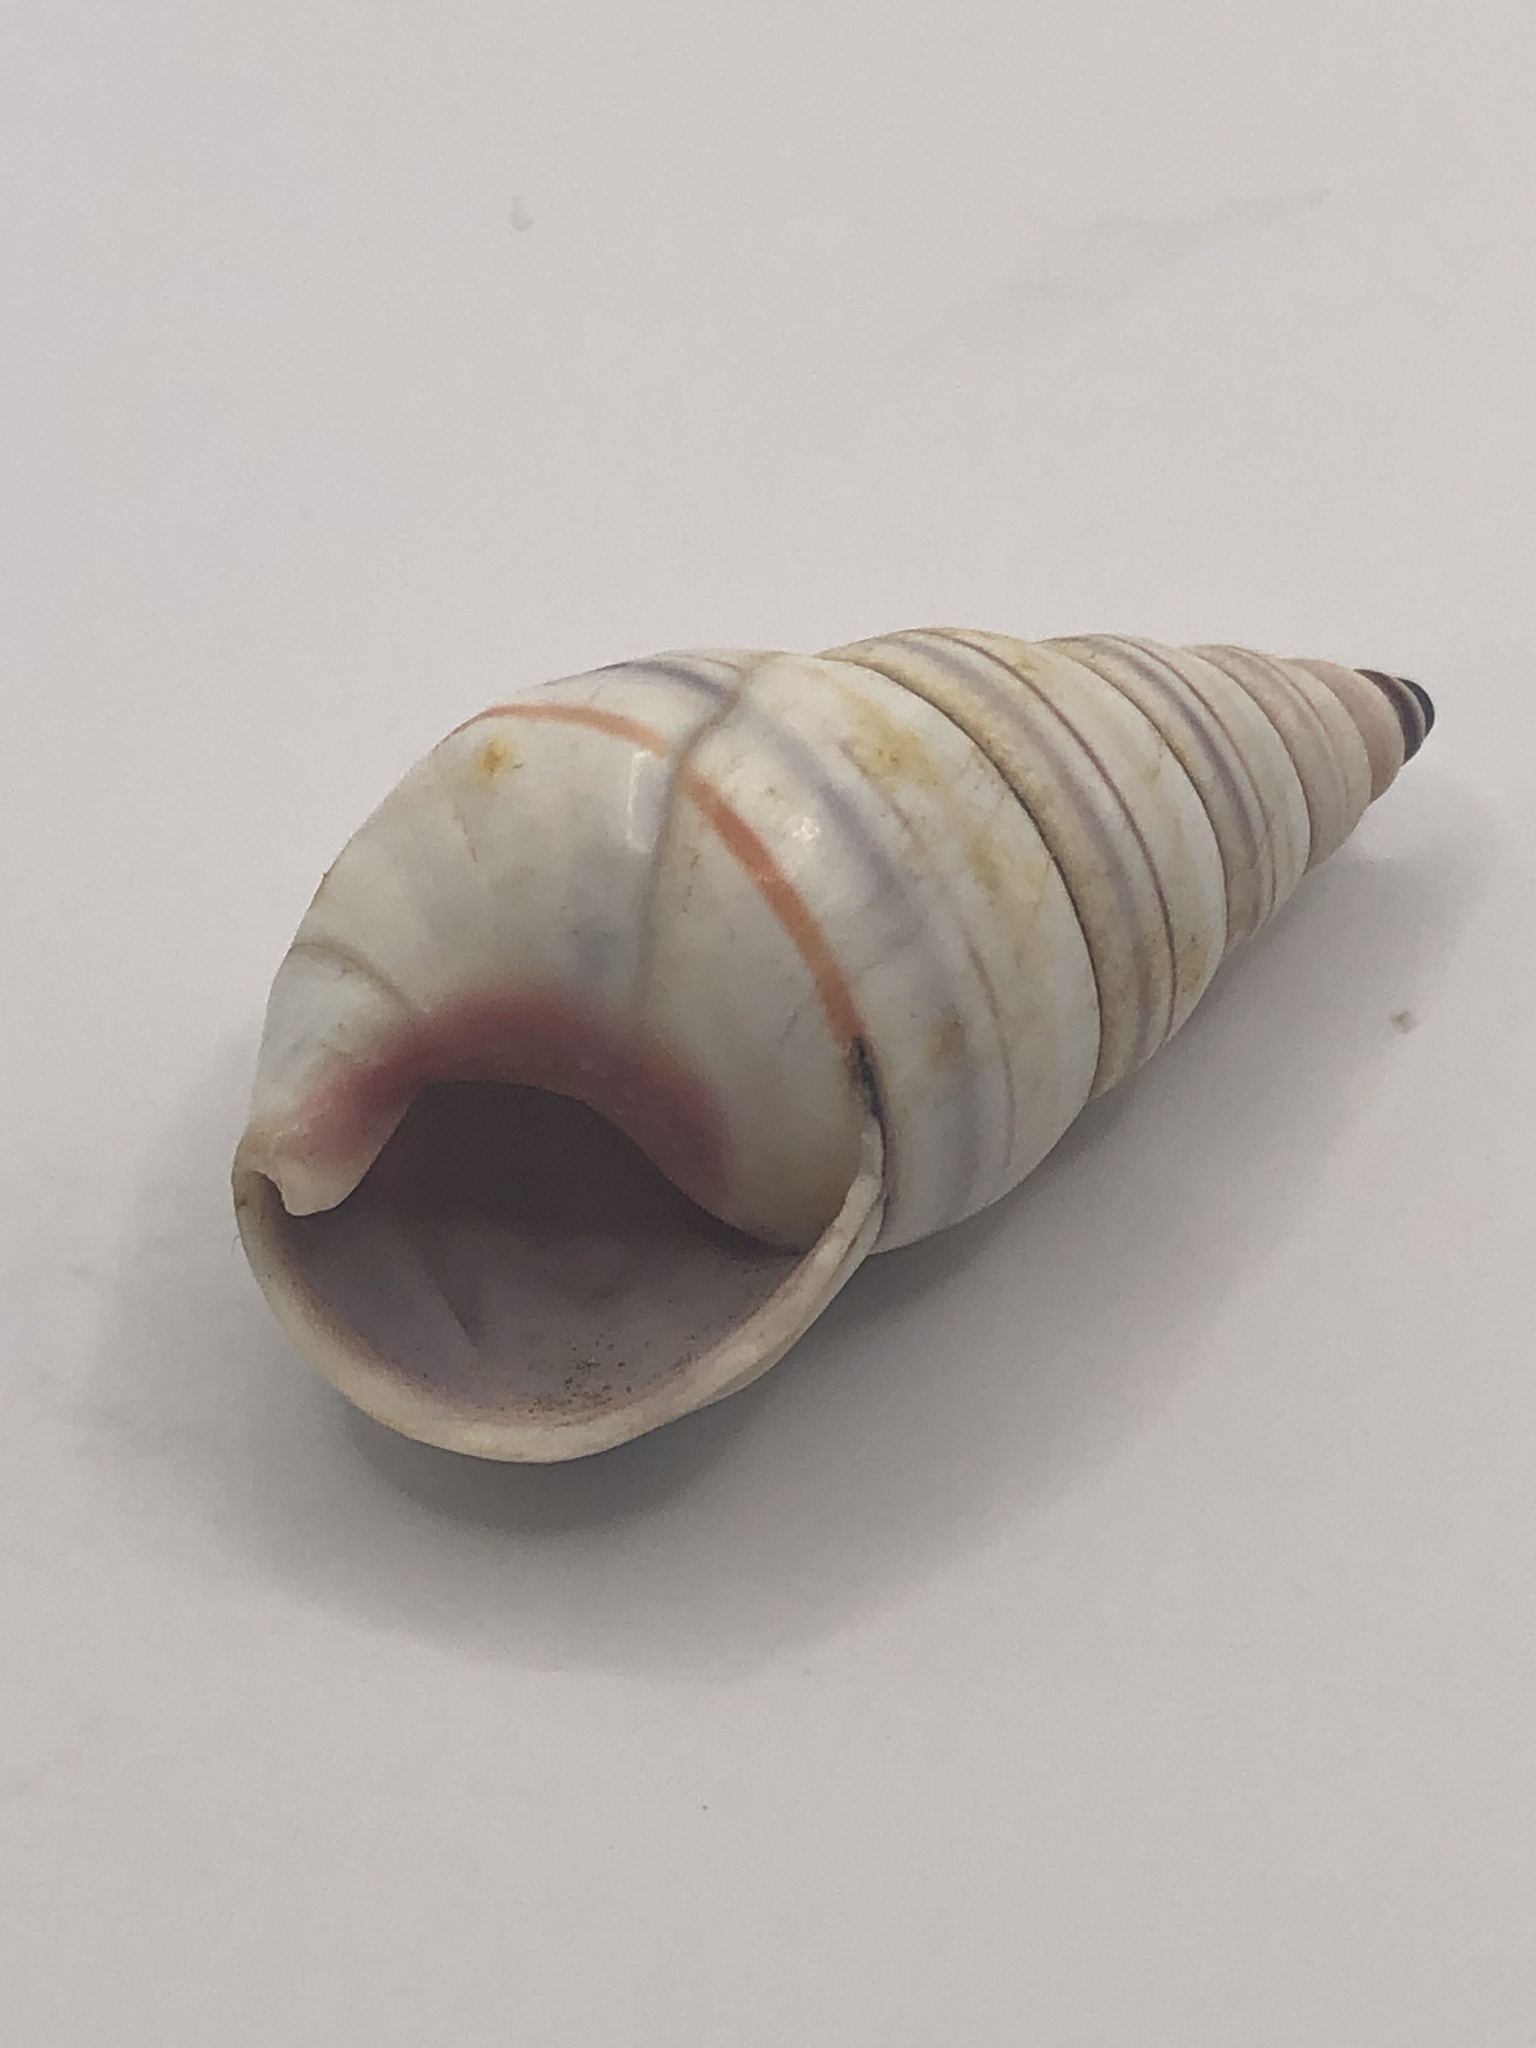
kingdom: Animalia
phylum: Mollusca
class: Gastropoda
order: Stylommatophora
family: Orthalicidae
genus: Liguus
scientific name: Liguus virgineus
